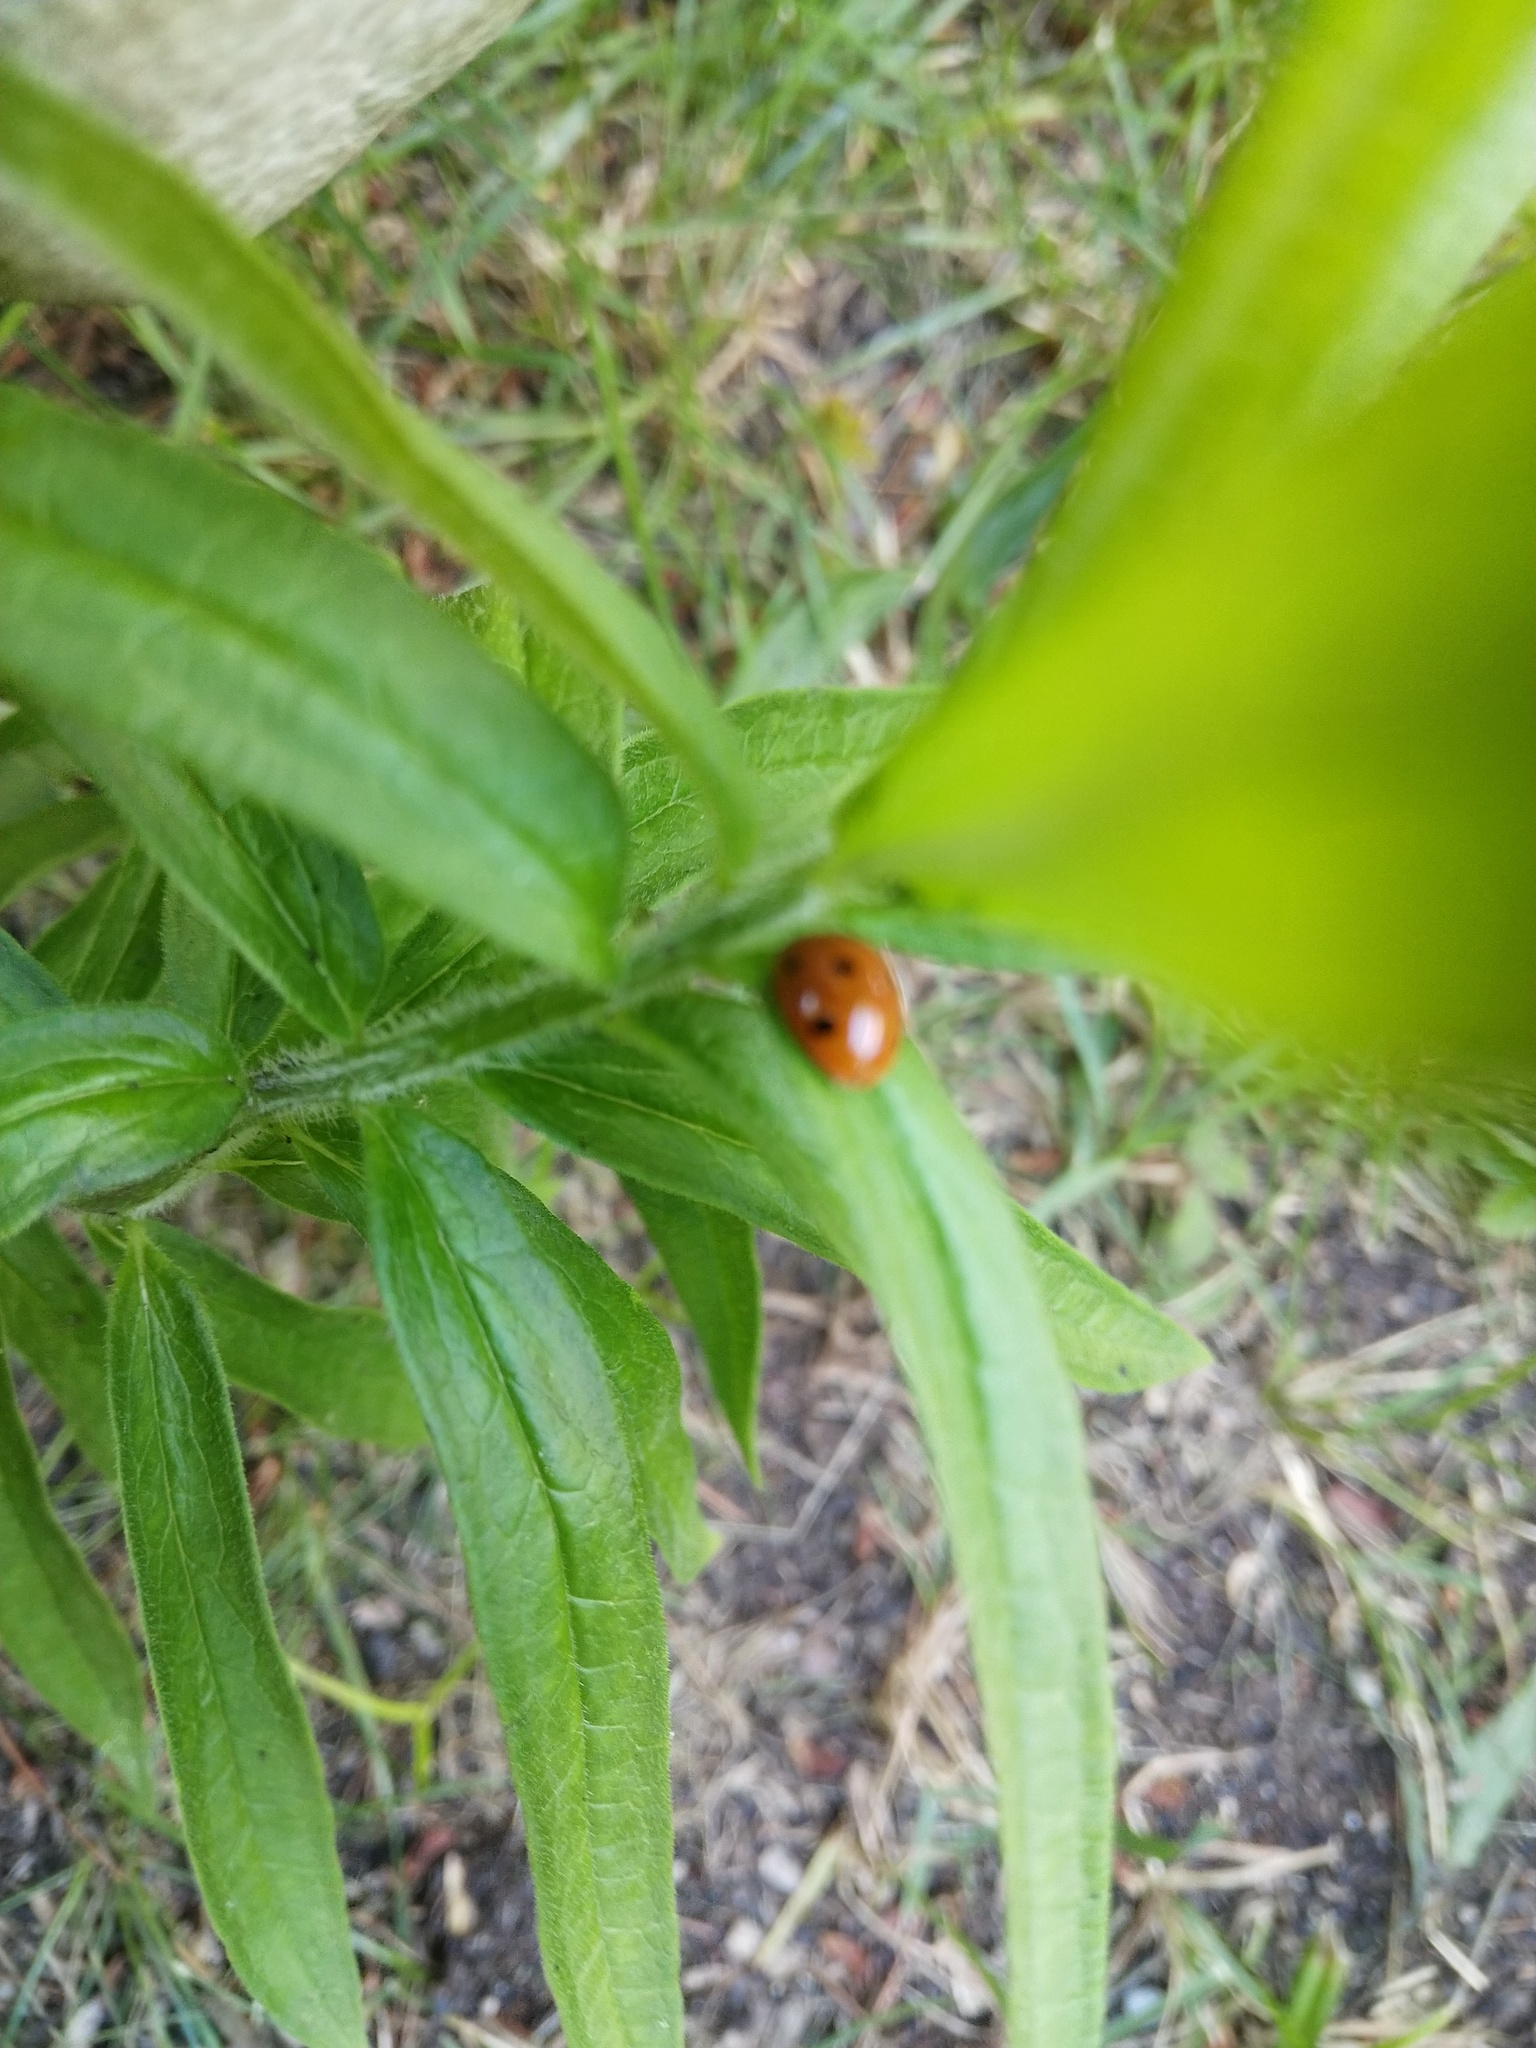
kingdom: Animalia
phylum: Arthropoda
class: Insecta
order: Coleoptera
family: Coccinellidae
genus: Coccinella
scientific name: Coccinella septempunctata
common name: Sevenspotted lady beetle
